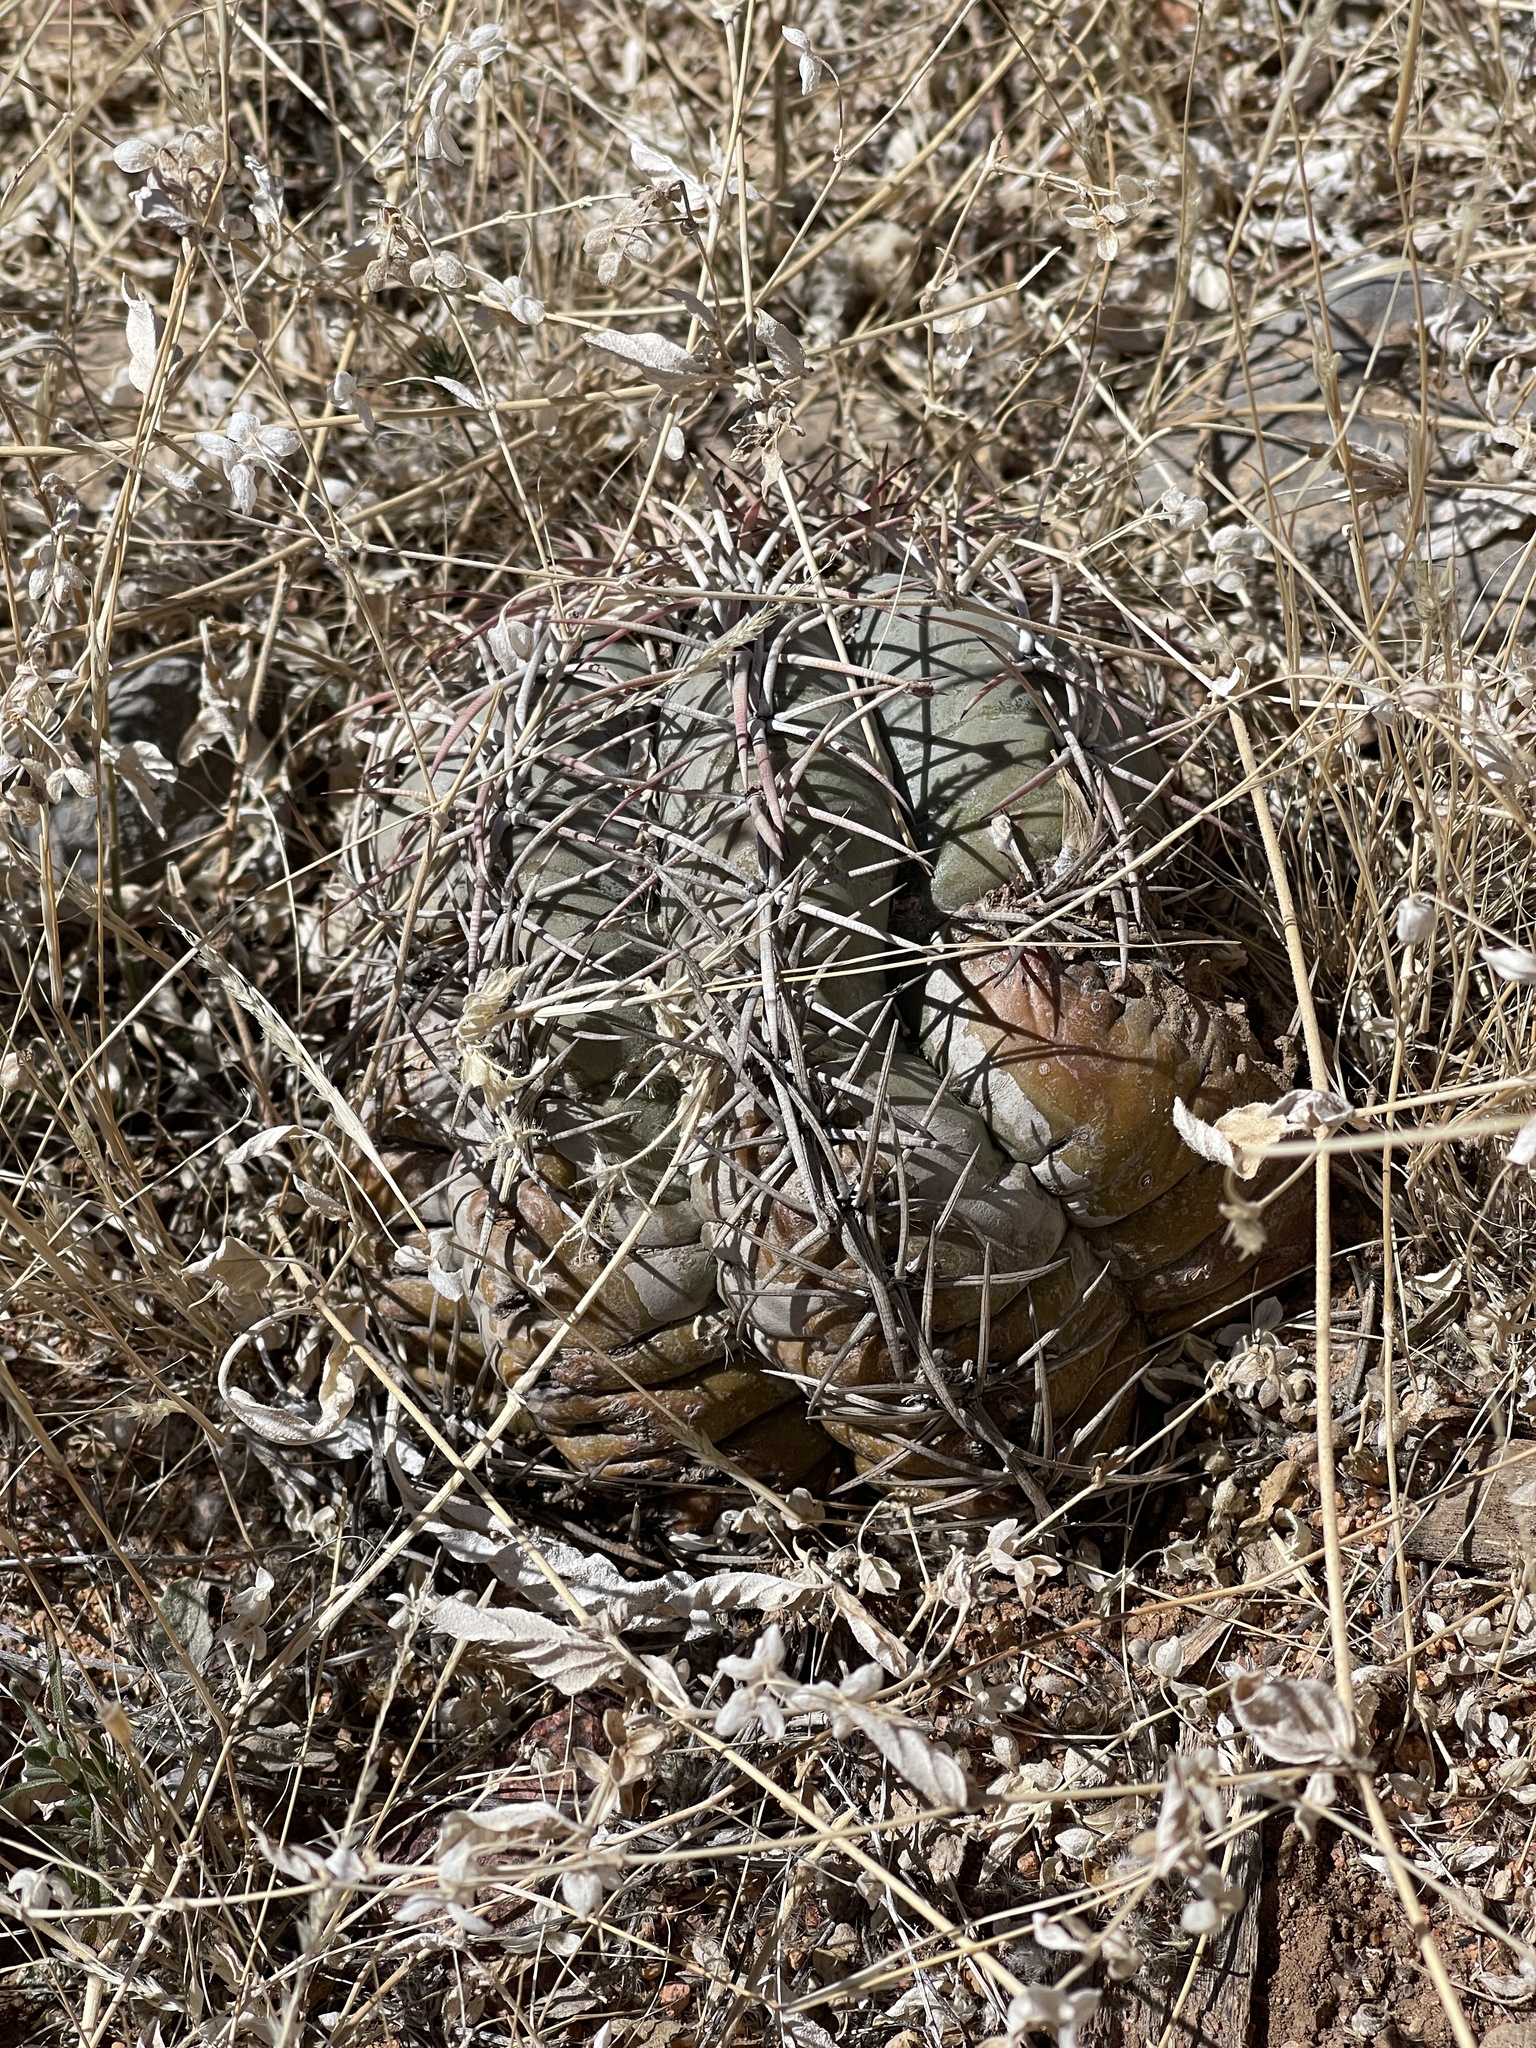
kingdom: Plantae
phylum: Tracheophyta
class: Magnoliopsida
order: Caryophyllales
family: Cactaceae
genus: Echinocactus
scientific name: Echinocactus horizonthalonius
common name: Devilshead
